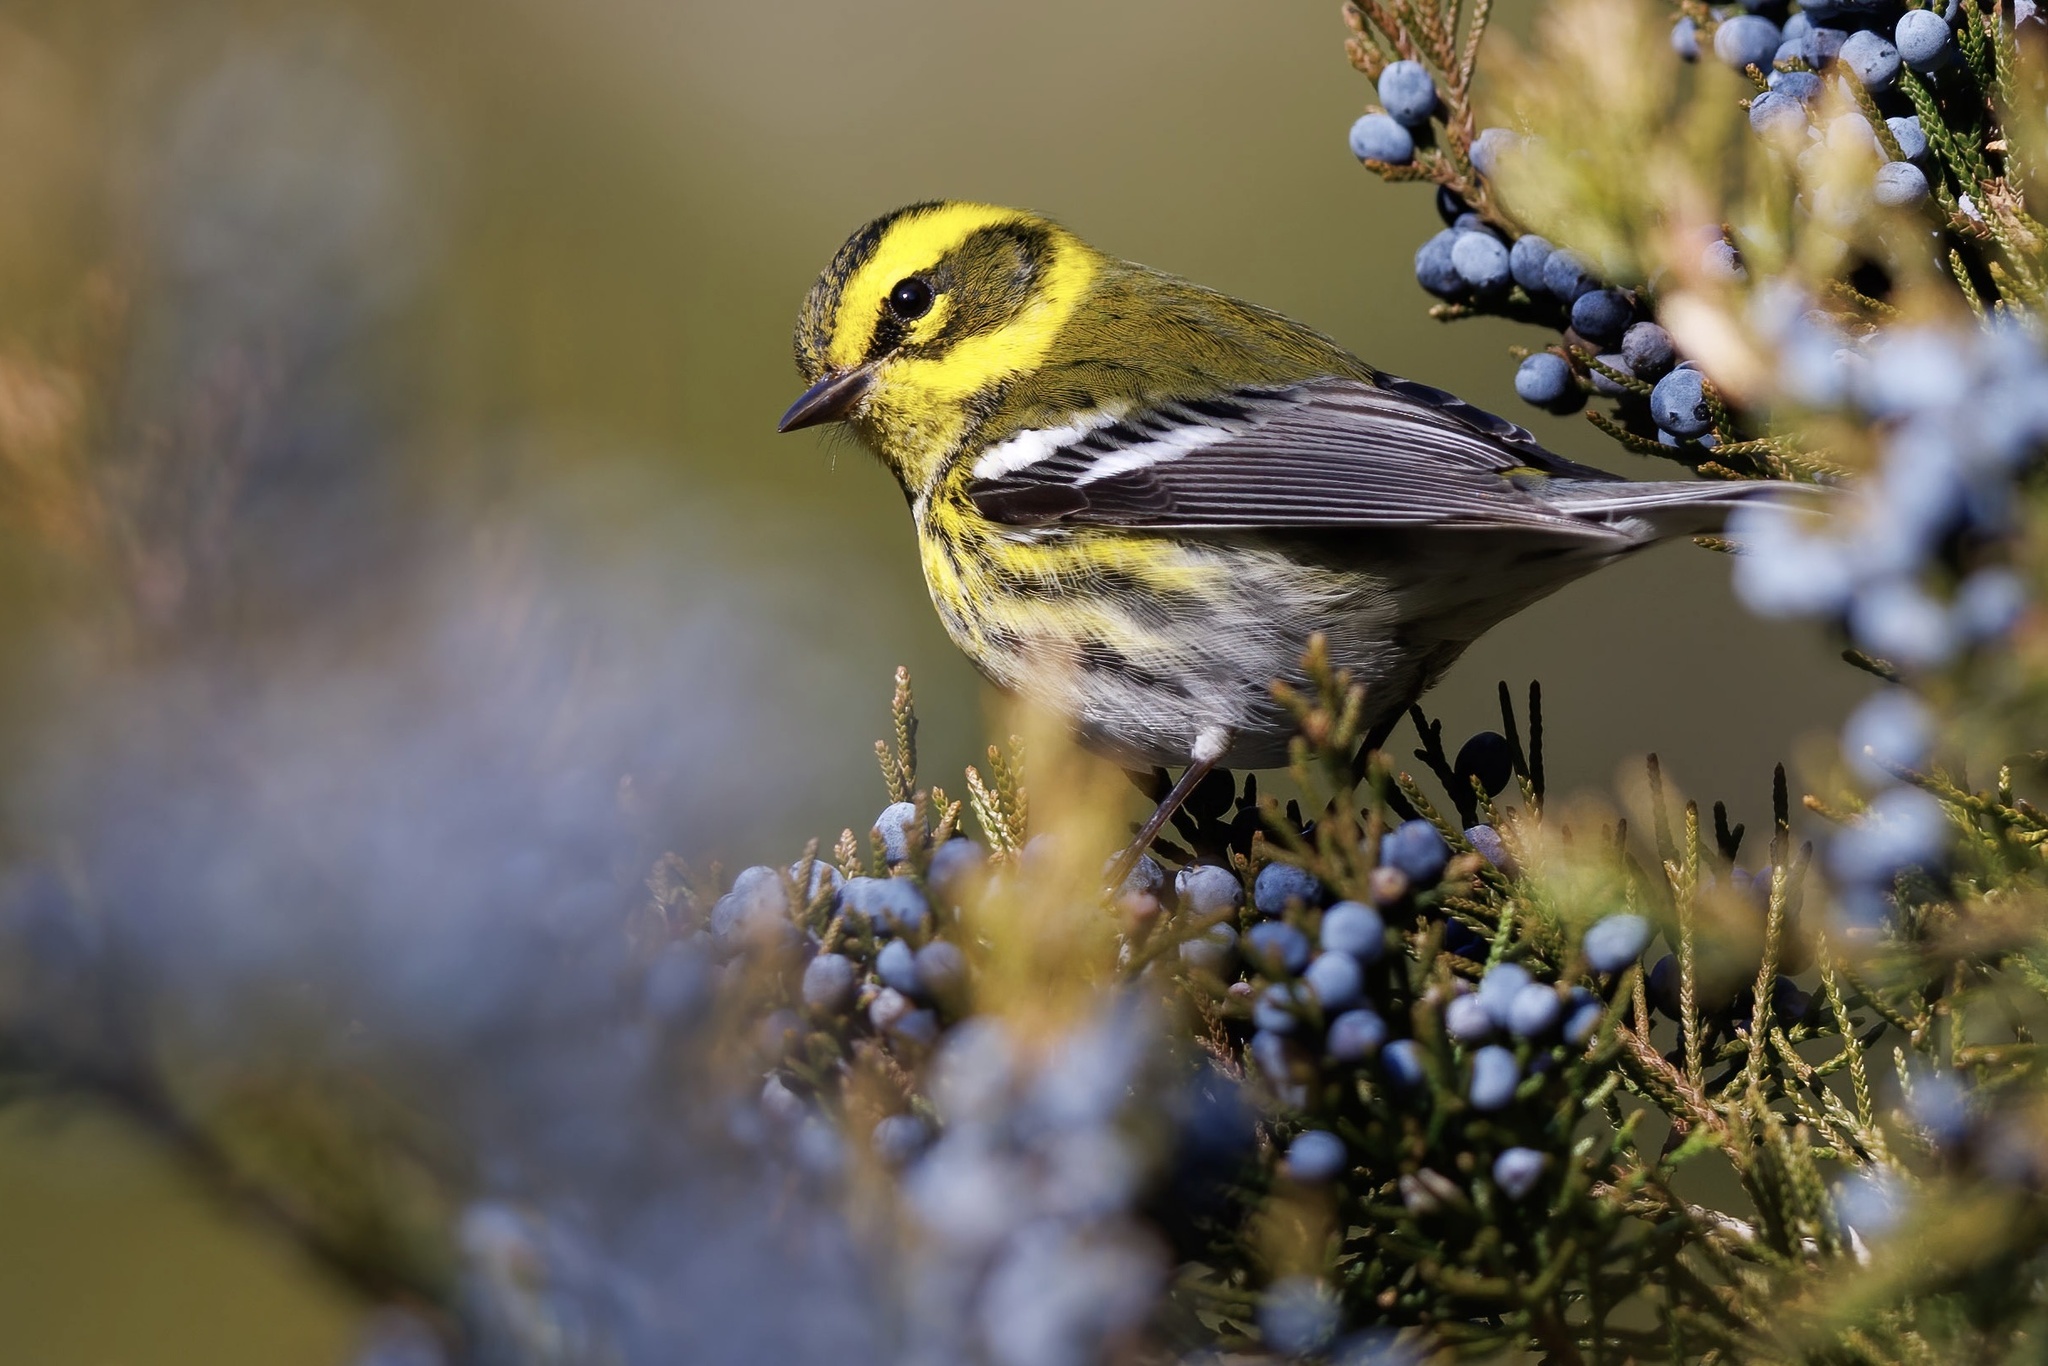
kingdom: Animalia
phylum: Chordata
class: Aves
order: Passeriformes
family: Parulidae
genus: Setophaga
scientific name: Setophaga townsendi
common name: Townsend's warbler
